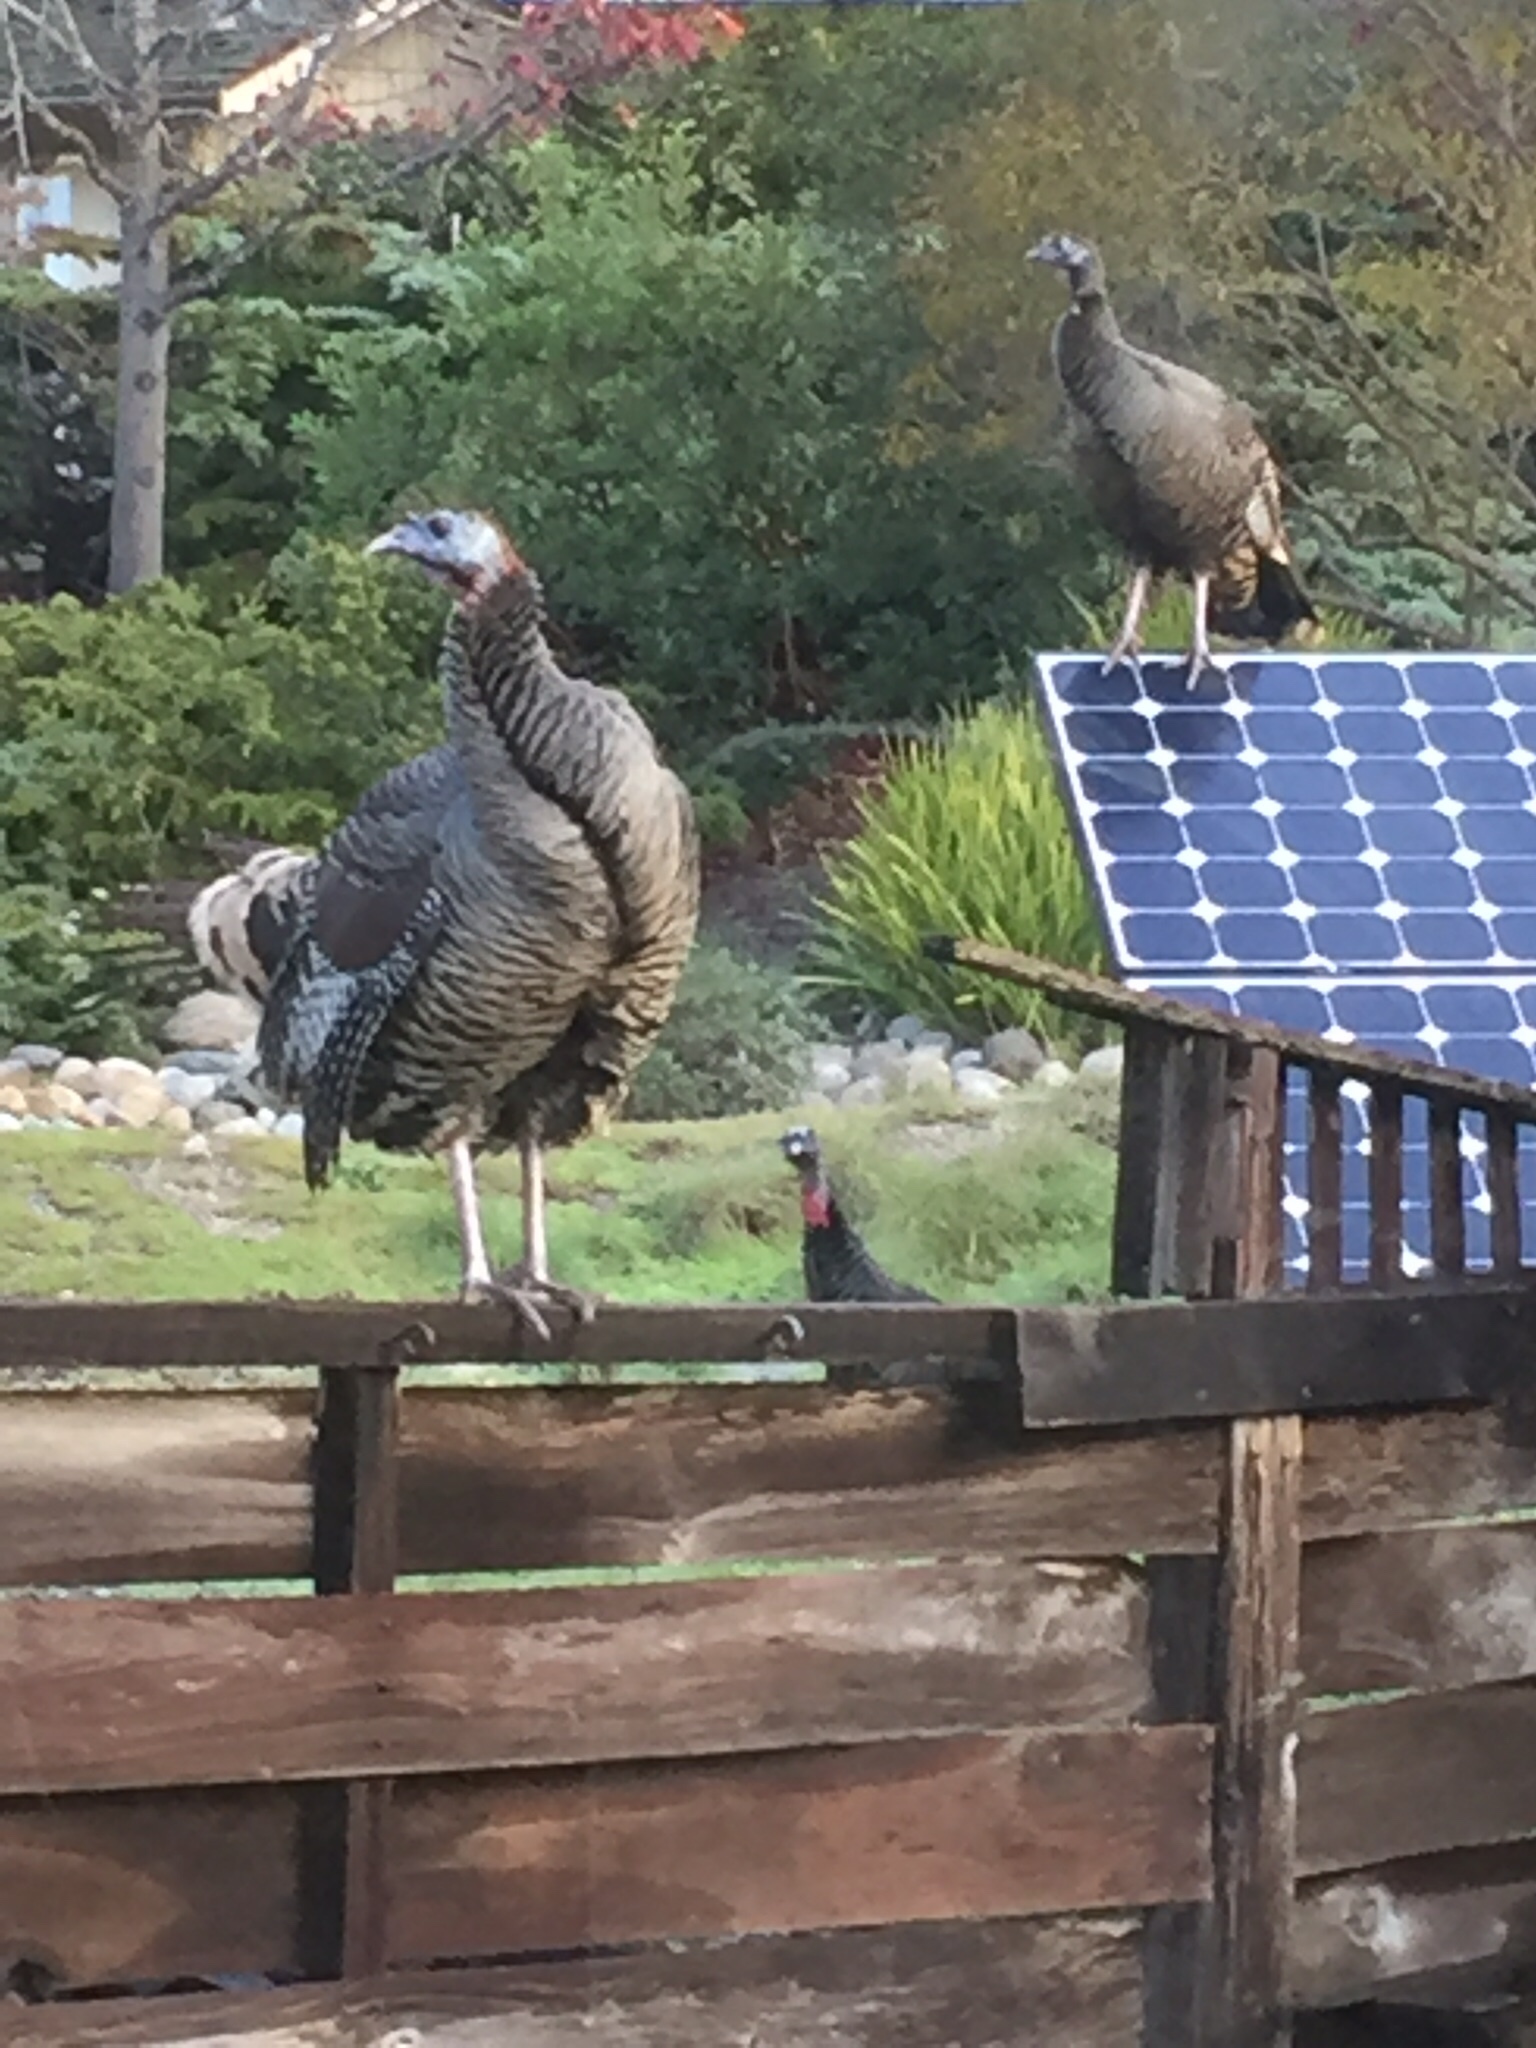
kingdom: Animalia
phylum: Chordata
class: Aves
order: Galliformes
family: Phasianidae
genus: Meleagris
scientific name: Meleagris gallopavo
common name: Wild turkey
